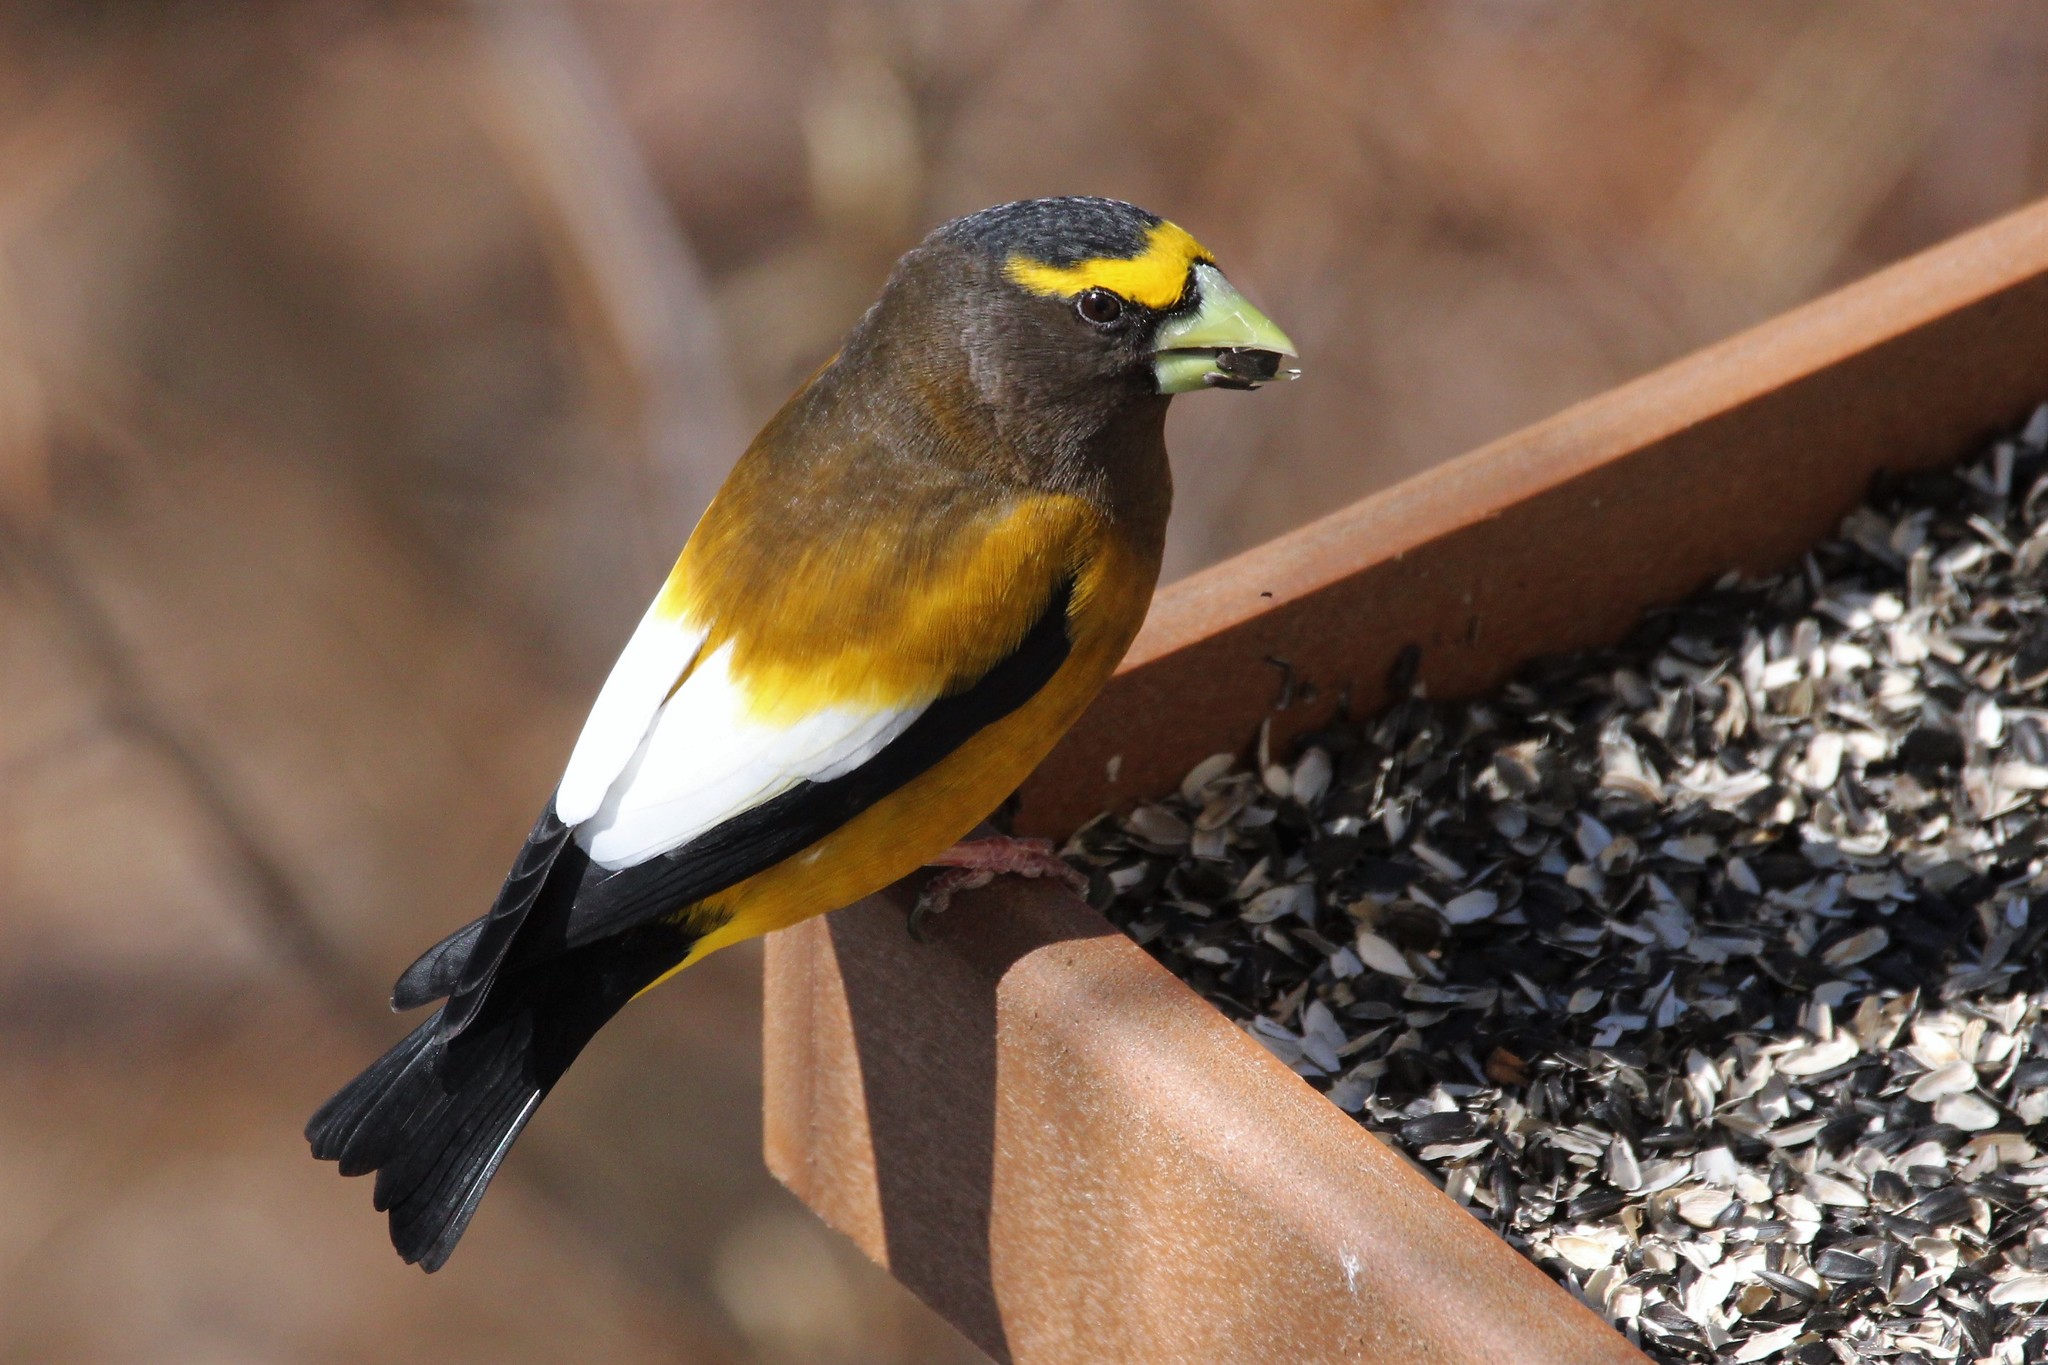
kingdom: Animalia
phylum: Chordata
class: Aves
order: Passeriformes
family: Fringillidae
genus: Hesperiphona
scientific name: Hesperiphona vespertina
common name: Evening grosbeak
